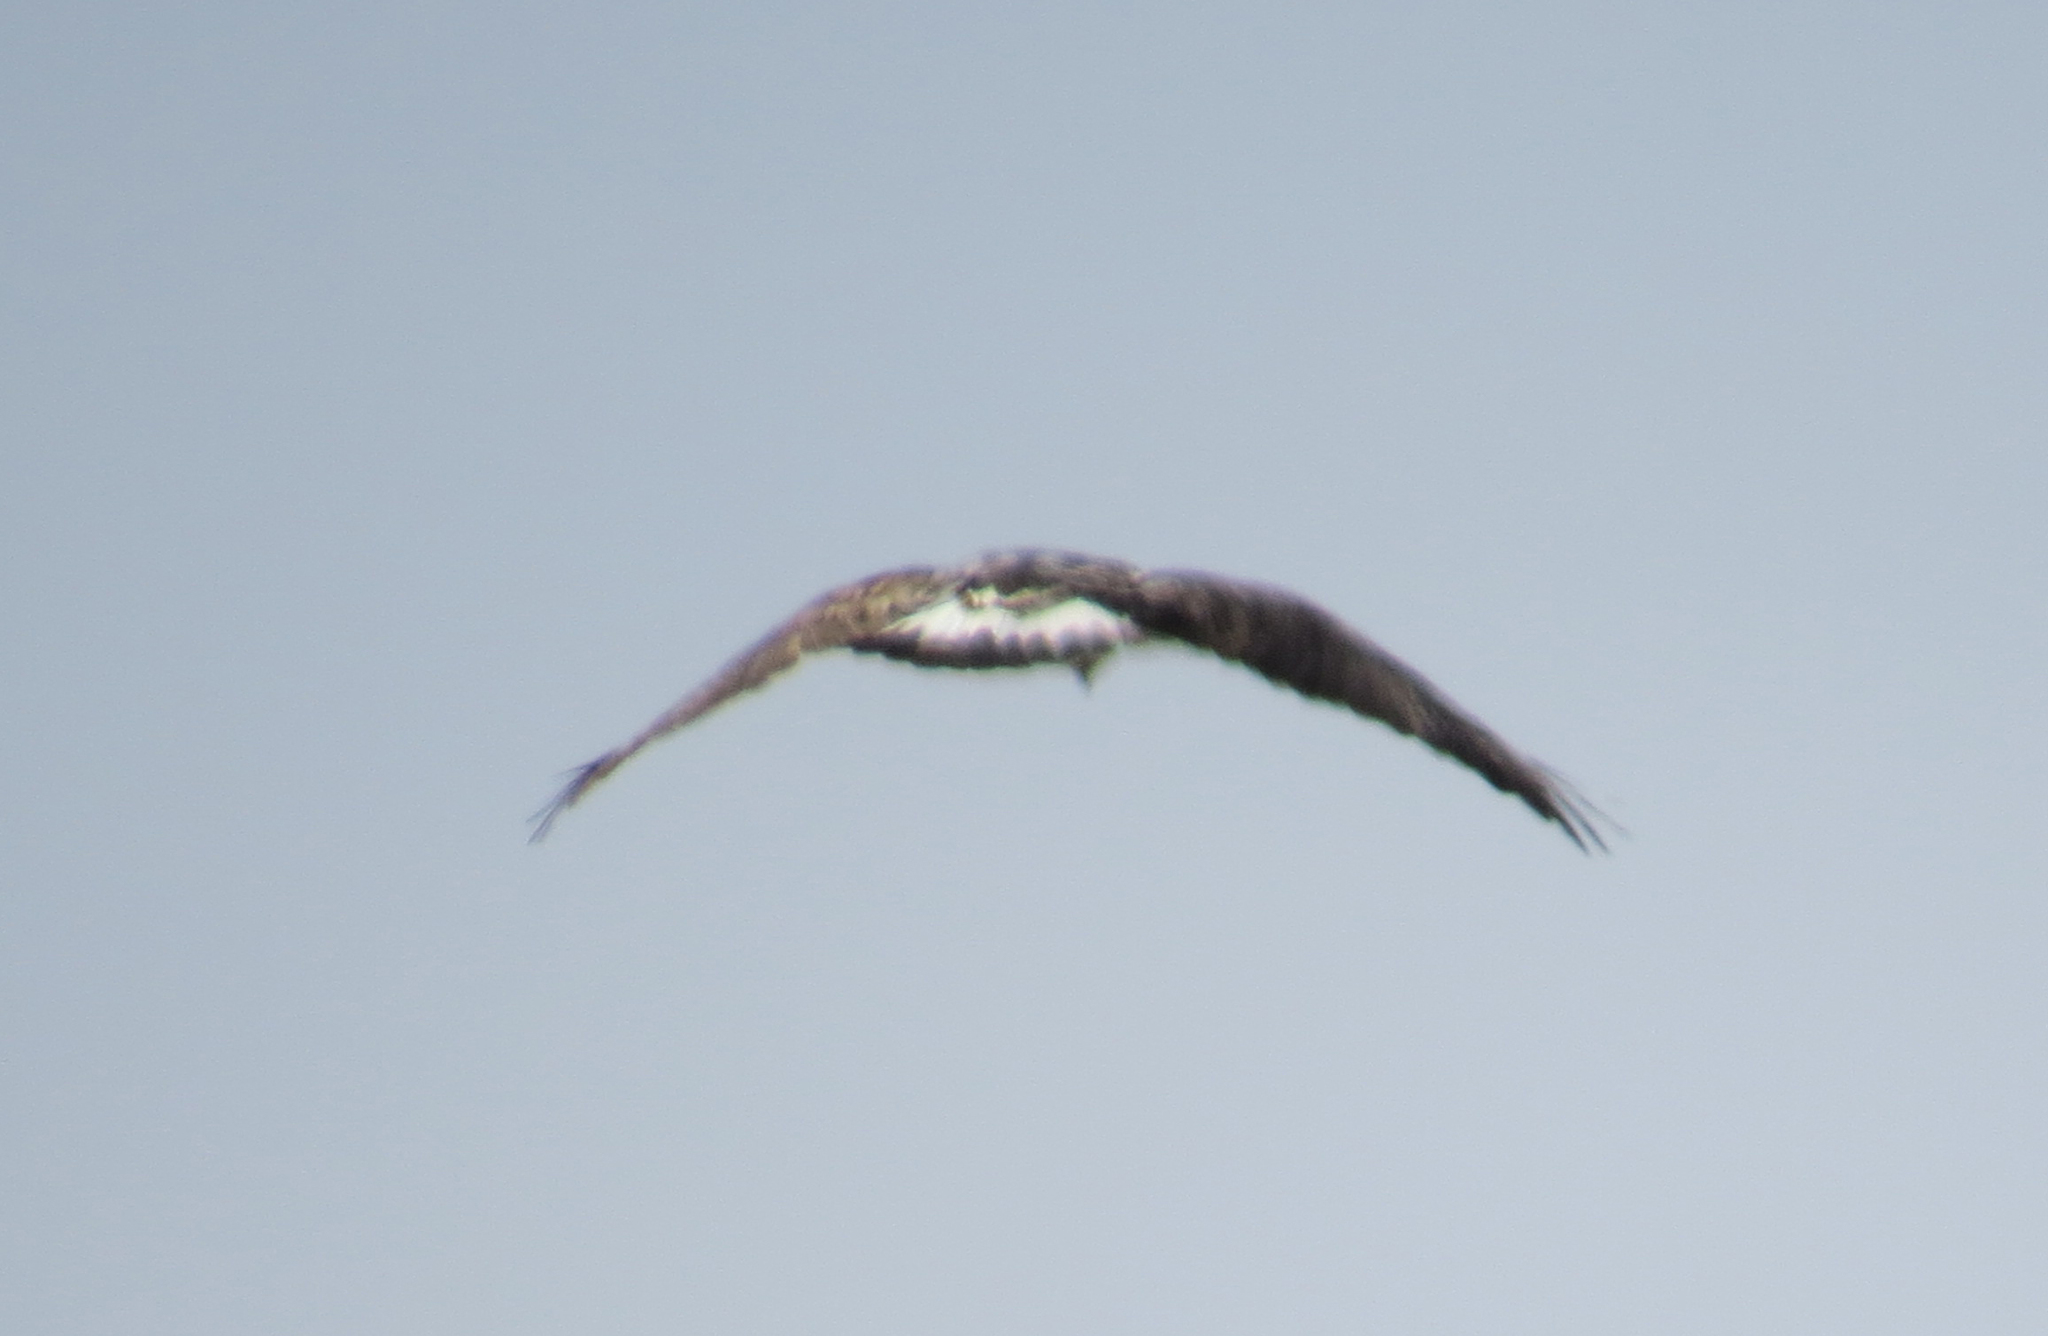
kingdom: Animalia
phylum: Chordata
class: Aves
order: Accipitriformes
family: Accipitridae
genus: Buteo
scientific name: Buteo lagopus
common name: Rough-legged buzzard
